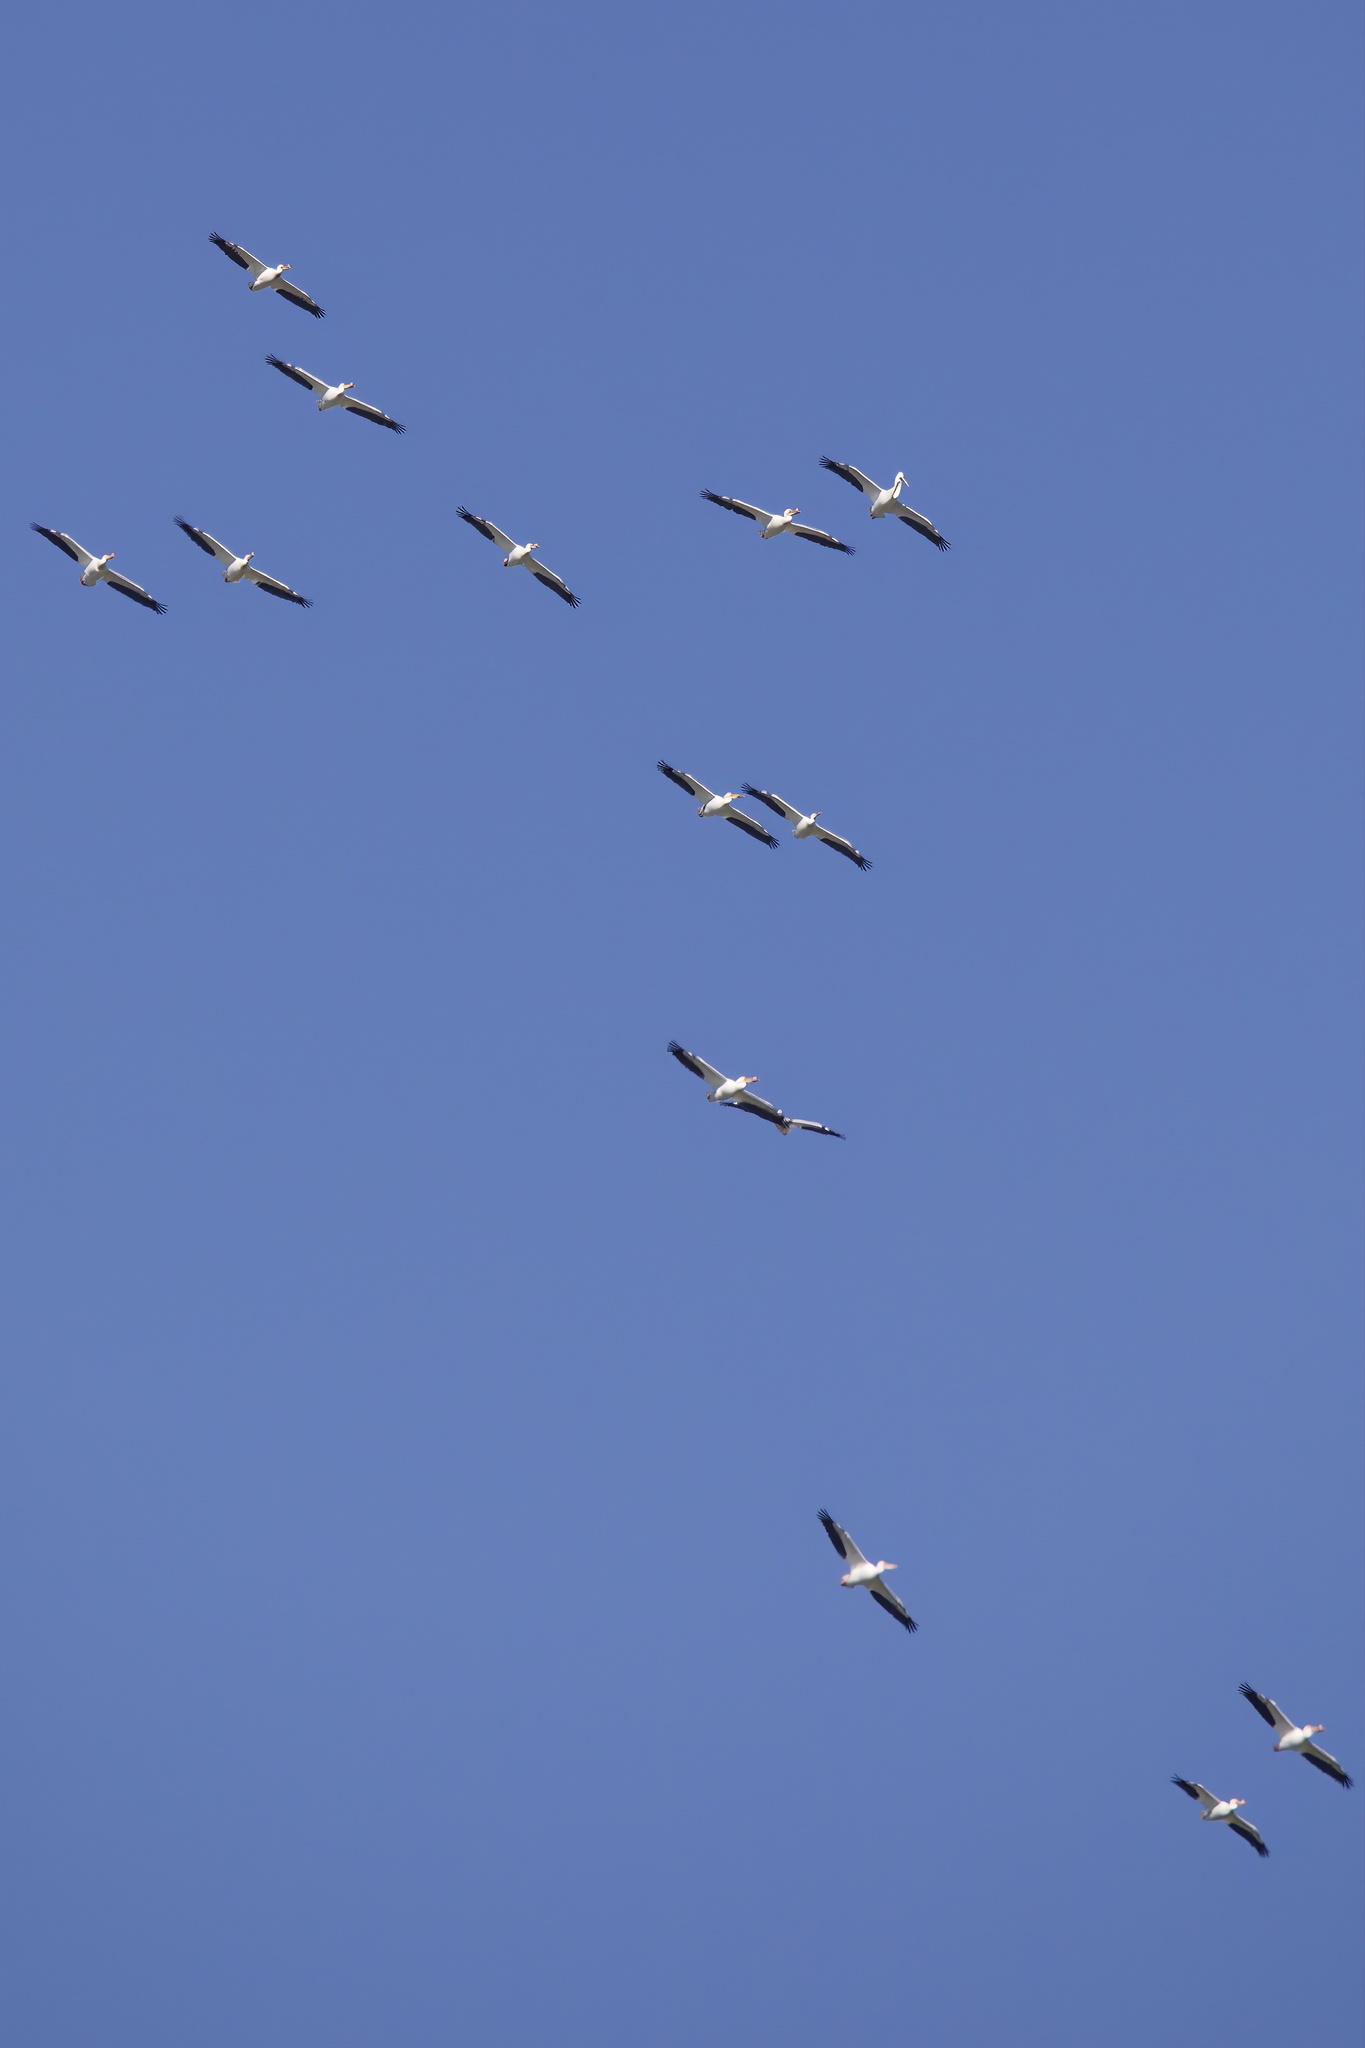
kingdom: Animalia
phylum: Chordata
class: Aves
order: Pelecaniformes
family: Pelecanidae
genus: Pelecanus
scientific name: Pelecanus erythrorhynchos
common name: American white pelican
